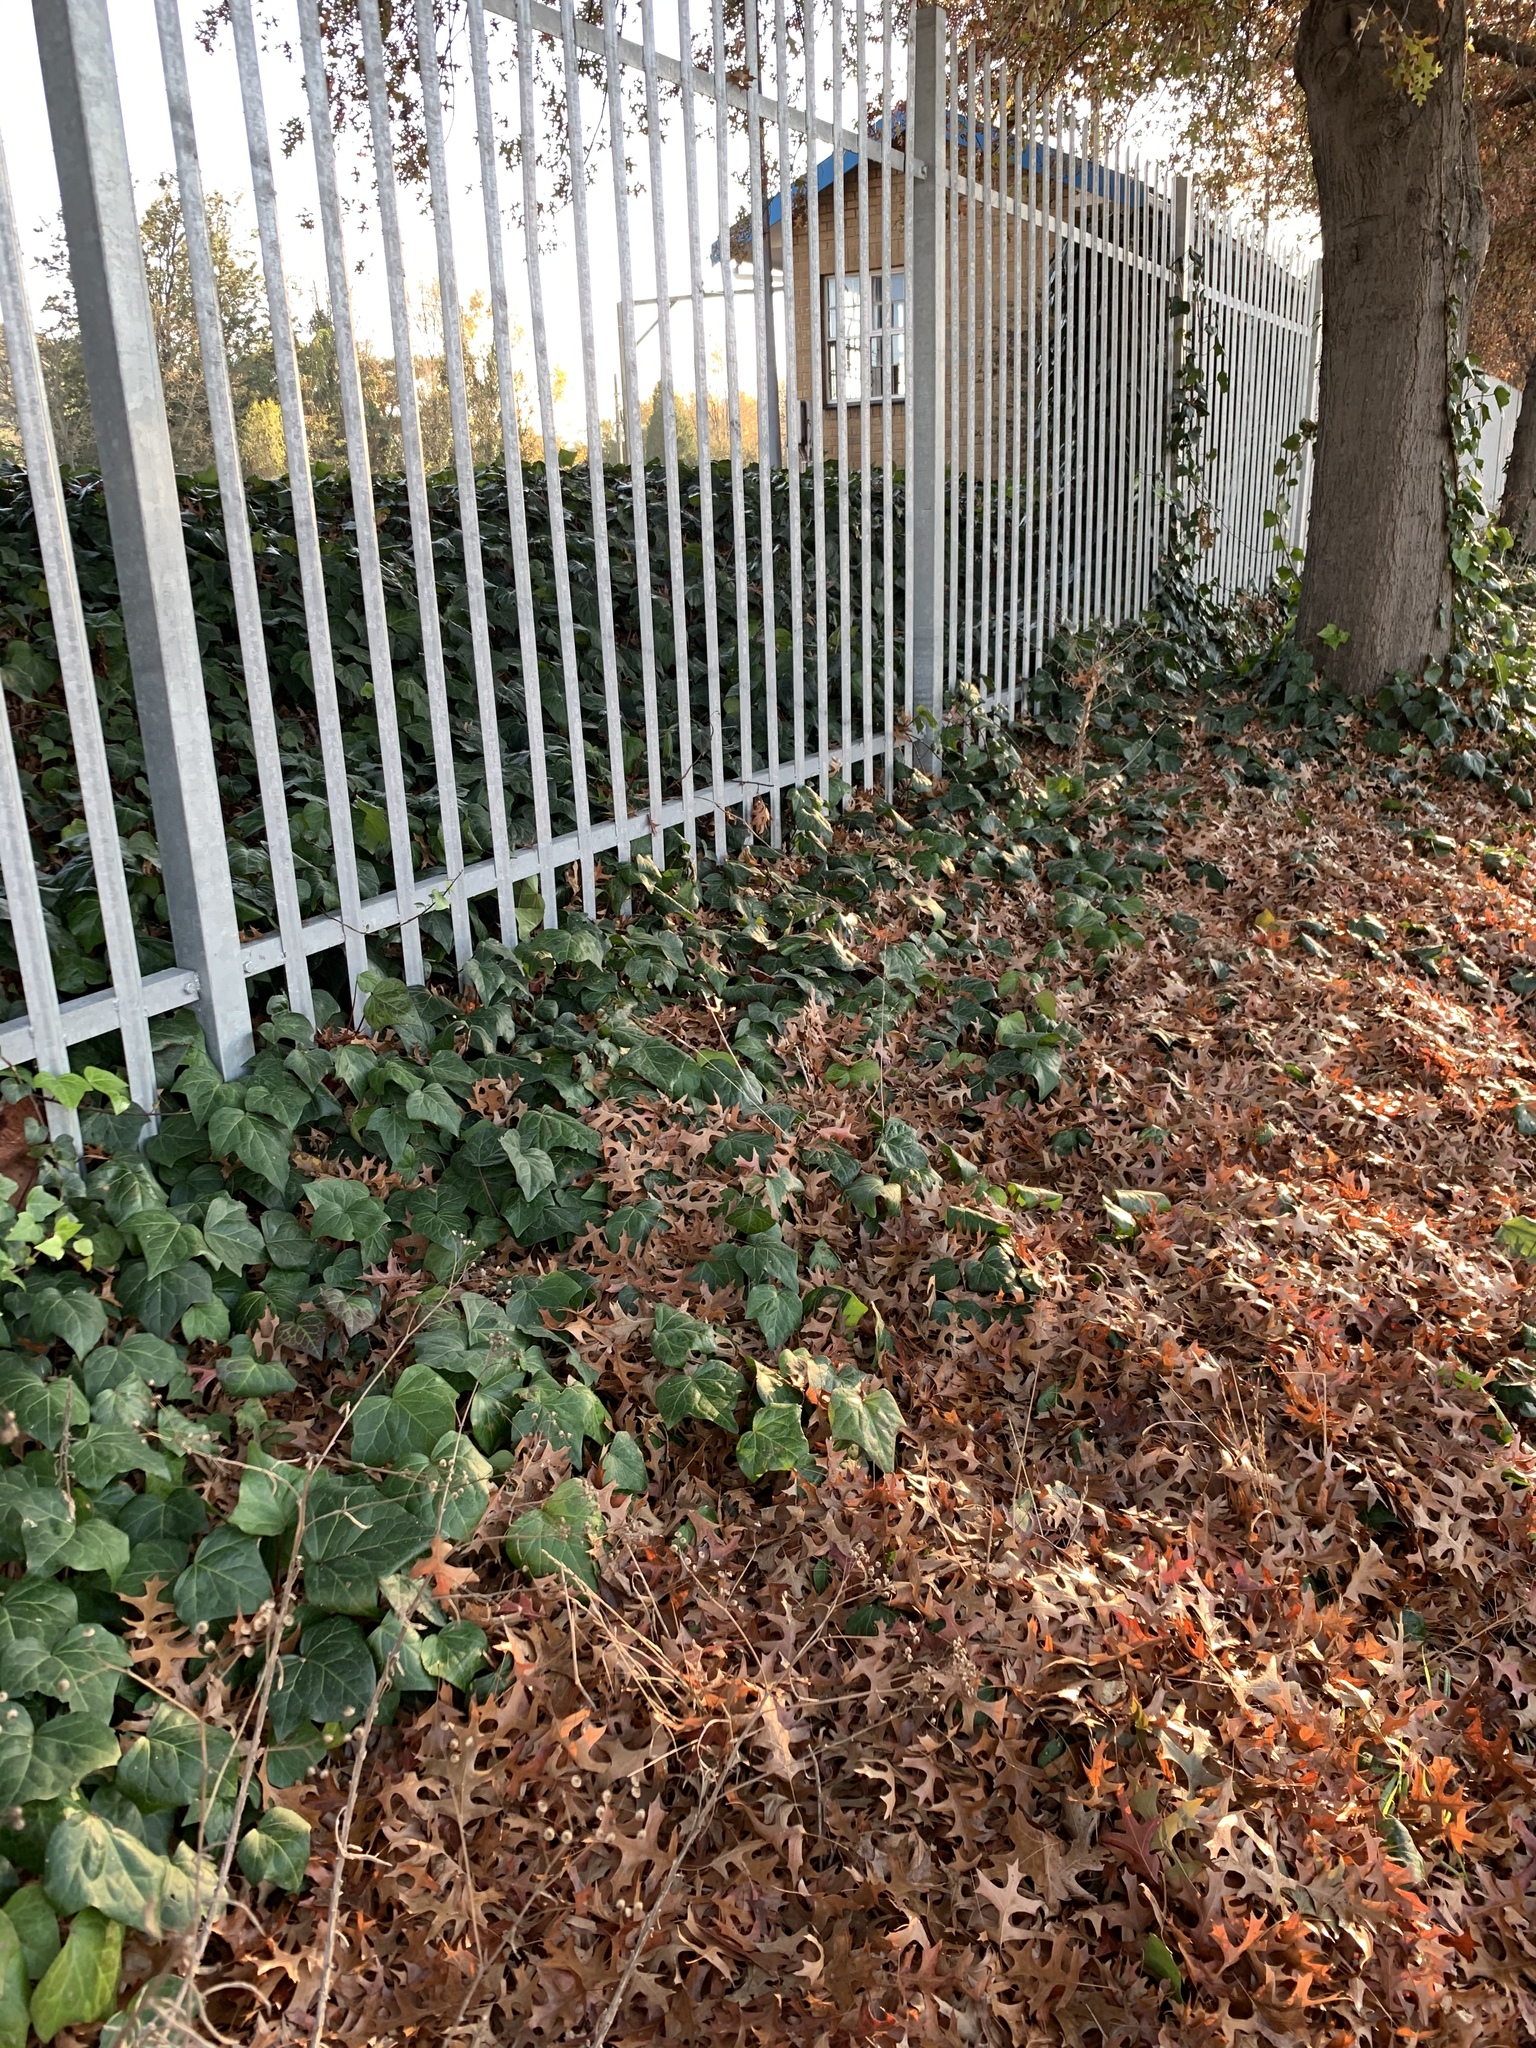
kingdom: Plantae
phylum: Tracheophyta
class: Magnoliopsida
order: Apiales
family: Araliaceae
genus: Hedera
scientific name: Hedera canariensis
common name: Madeira ivy
